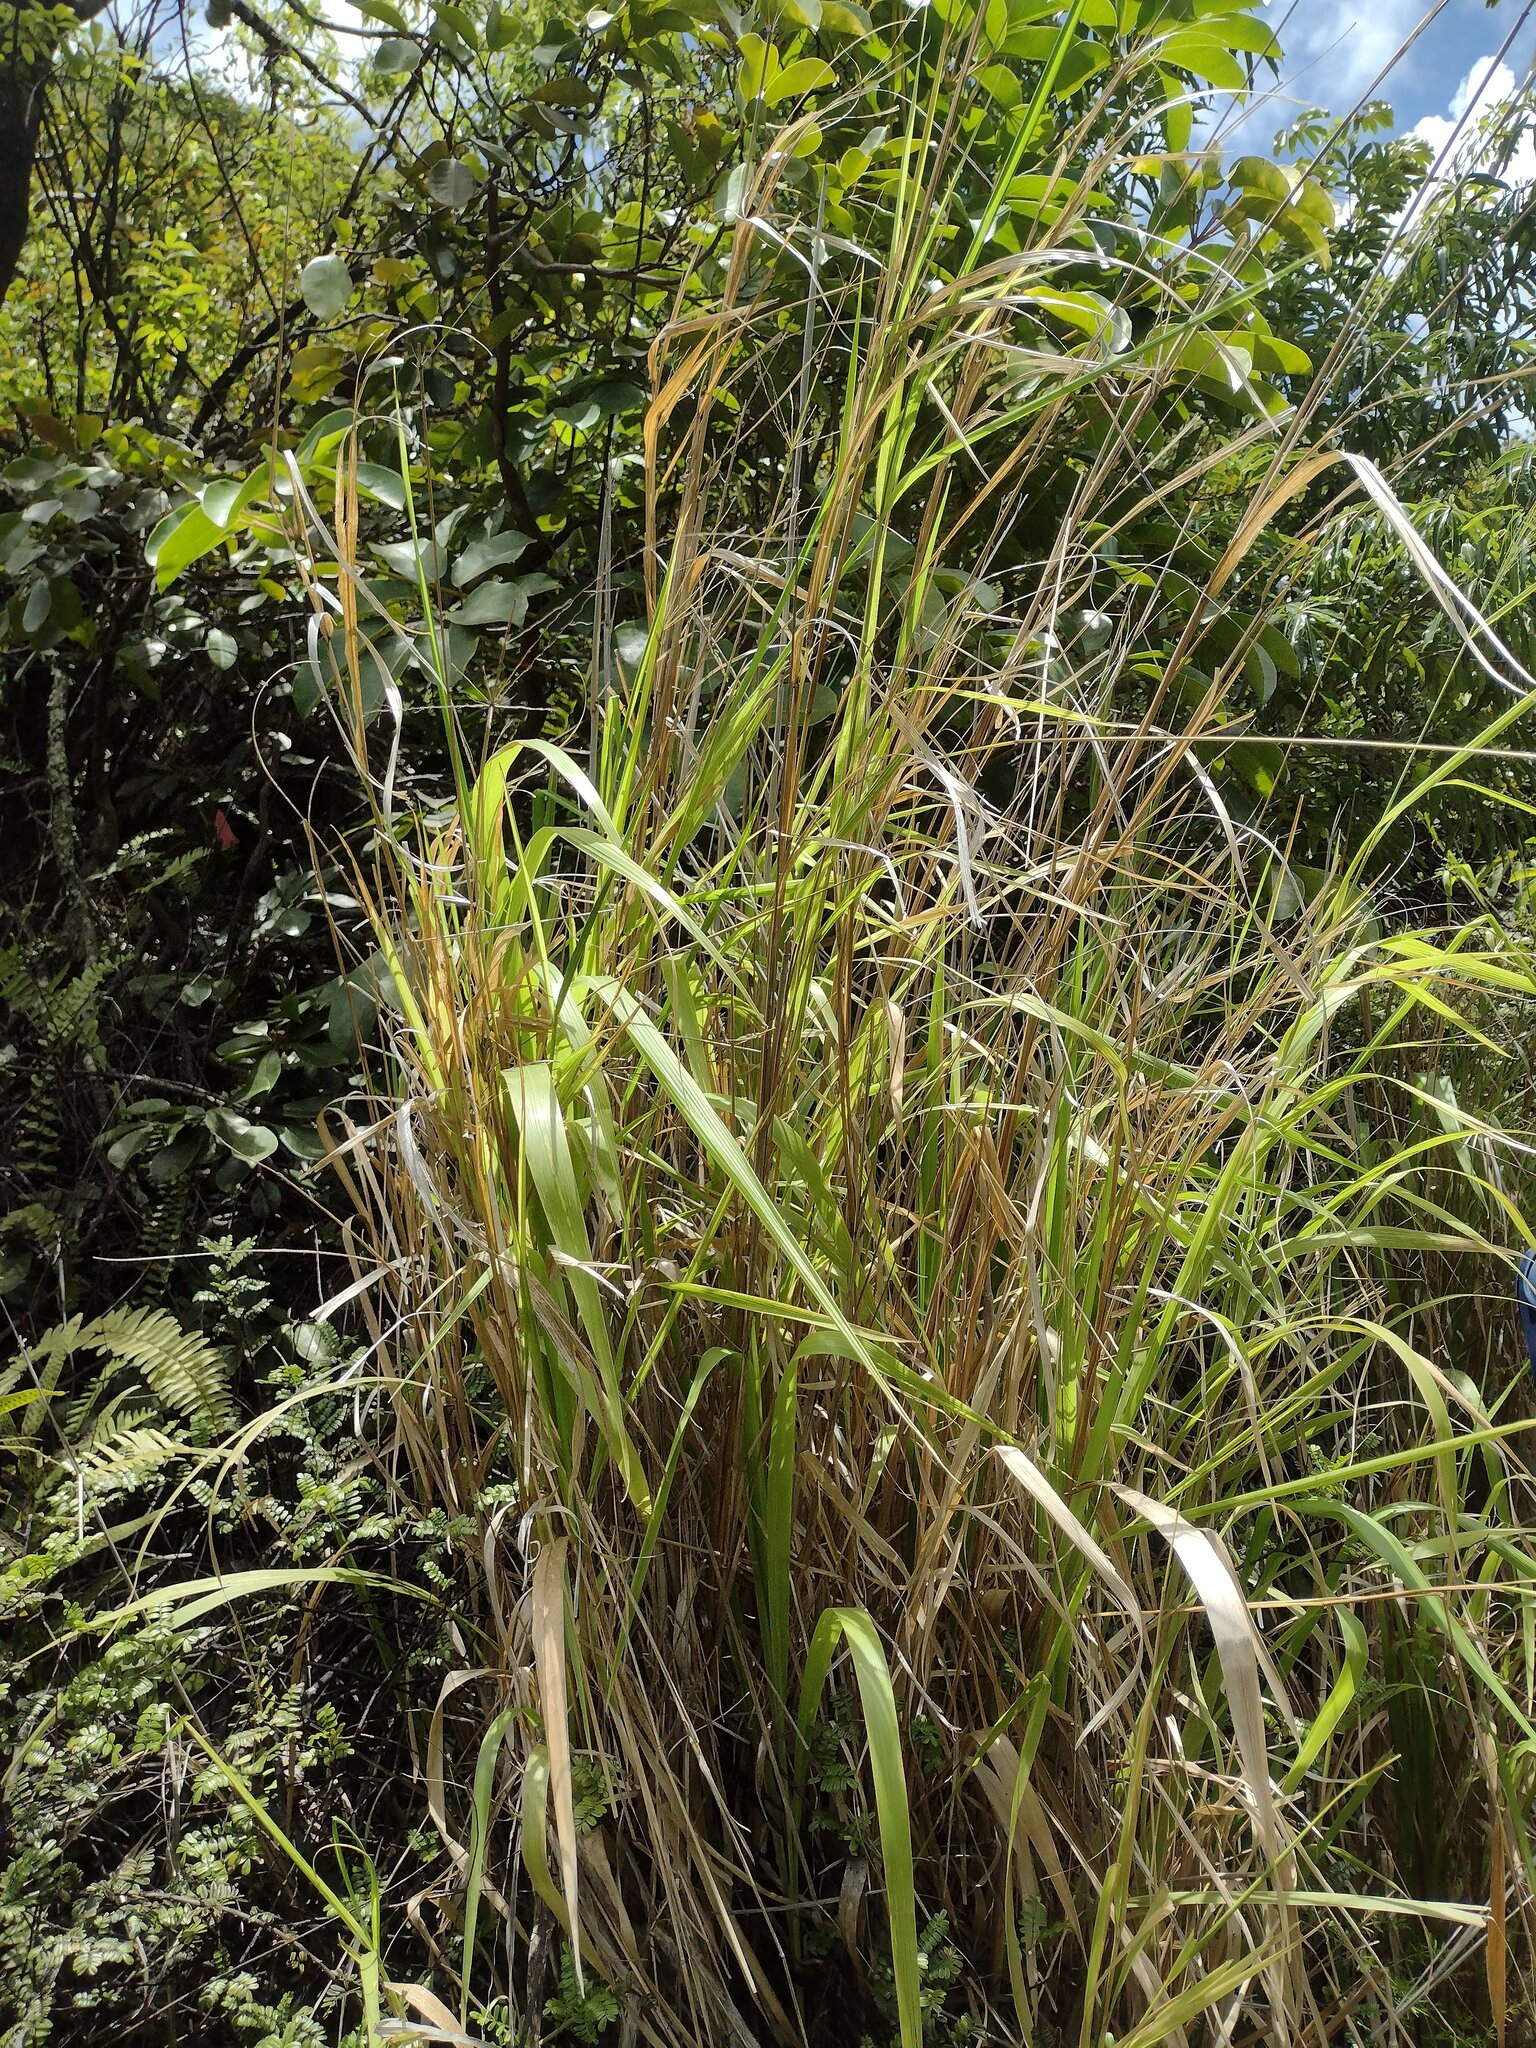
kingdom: Plantae
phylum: Tracheophyta
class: Liliopsida
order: Poales
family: Poaceae
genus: Megathyrsus
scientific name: Megathyrsus maximus
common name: Guineagrass
